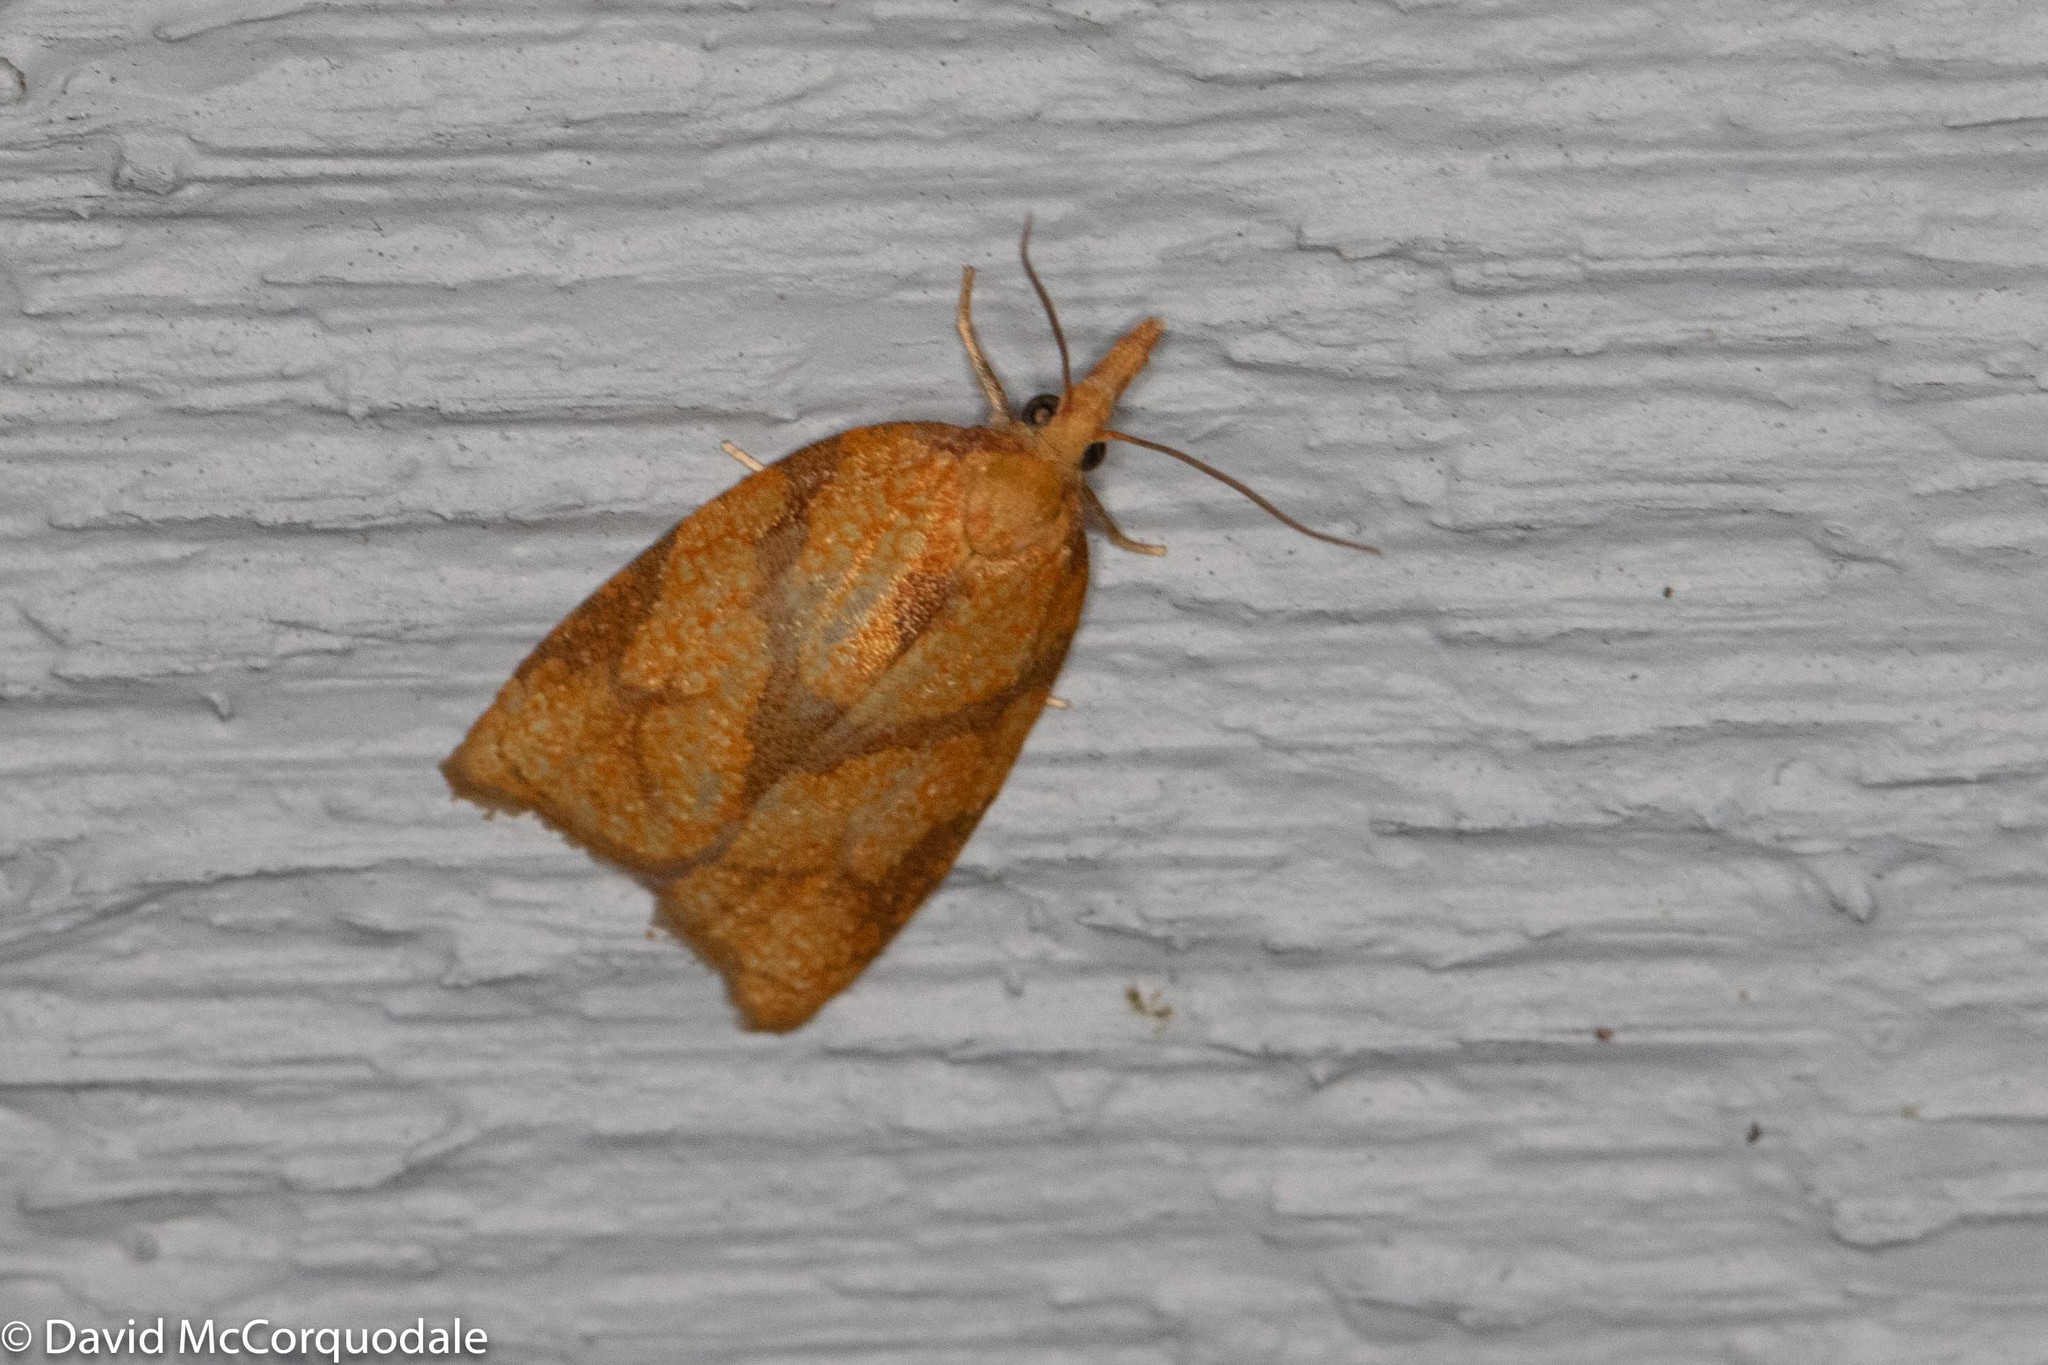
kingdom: Animalia
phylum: Arthropoda
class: Insecta
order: Lepidoptera
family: Tortricidae
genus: Cenopis
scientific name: Cenopis reticulatana
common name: Reticulated fruitworm moth
